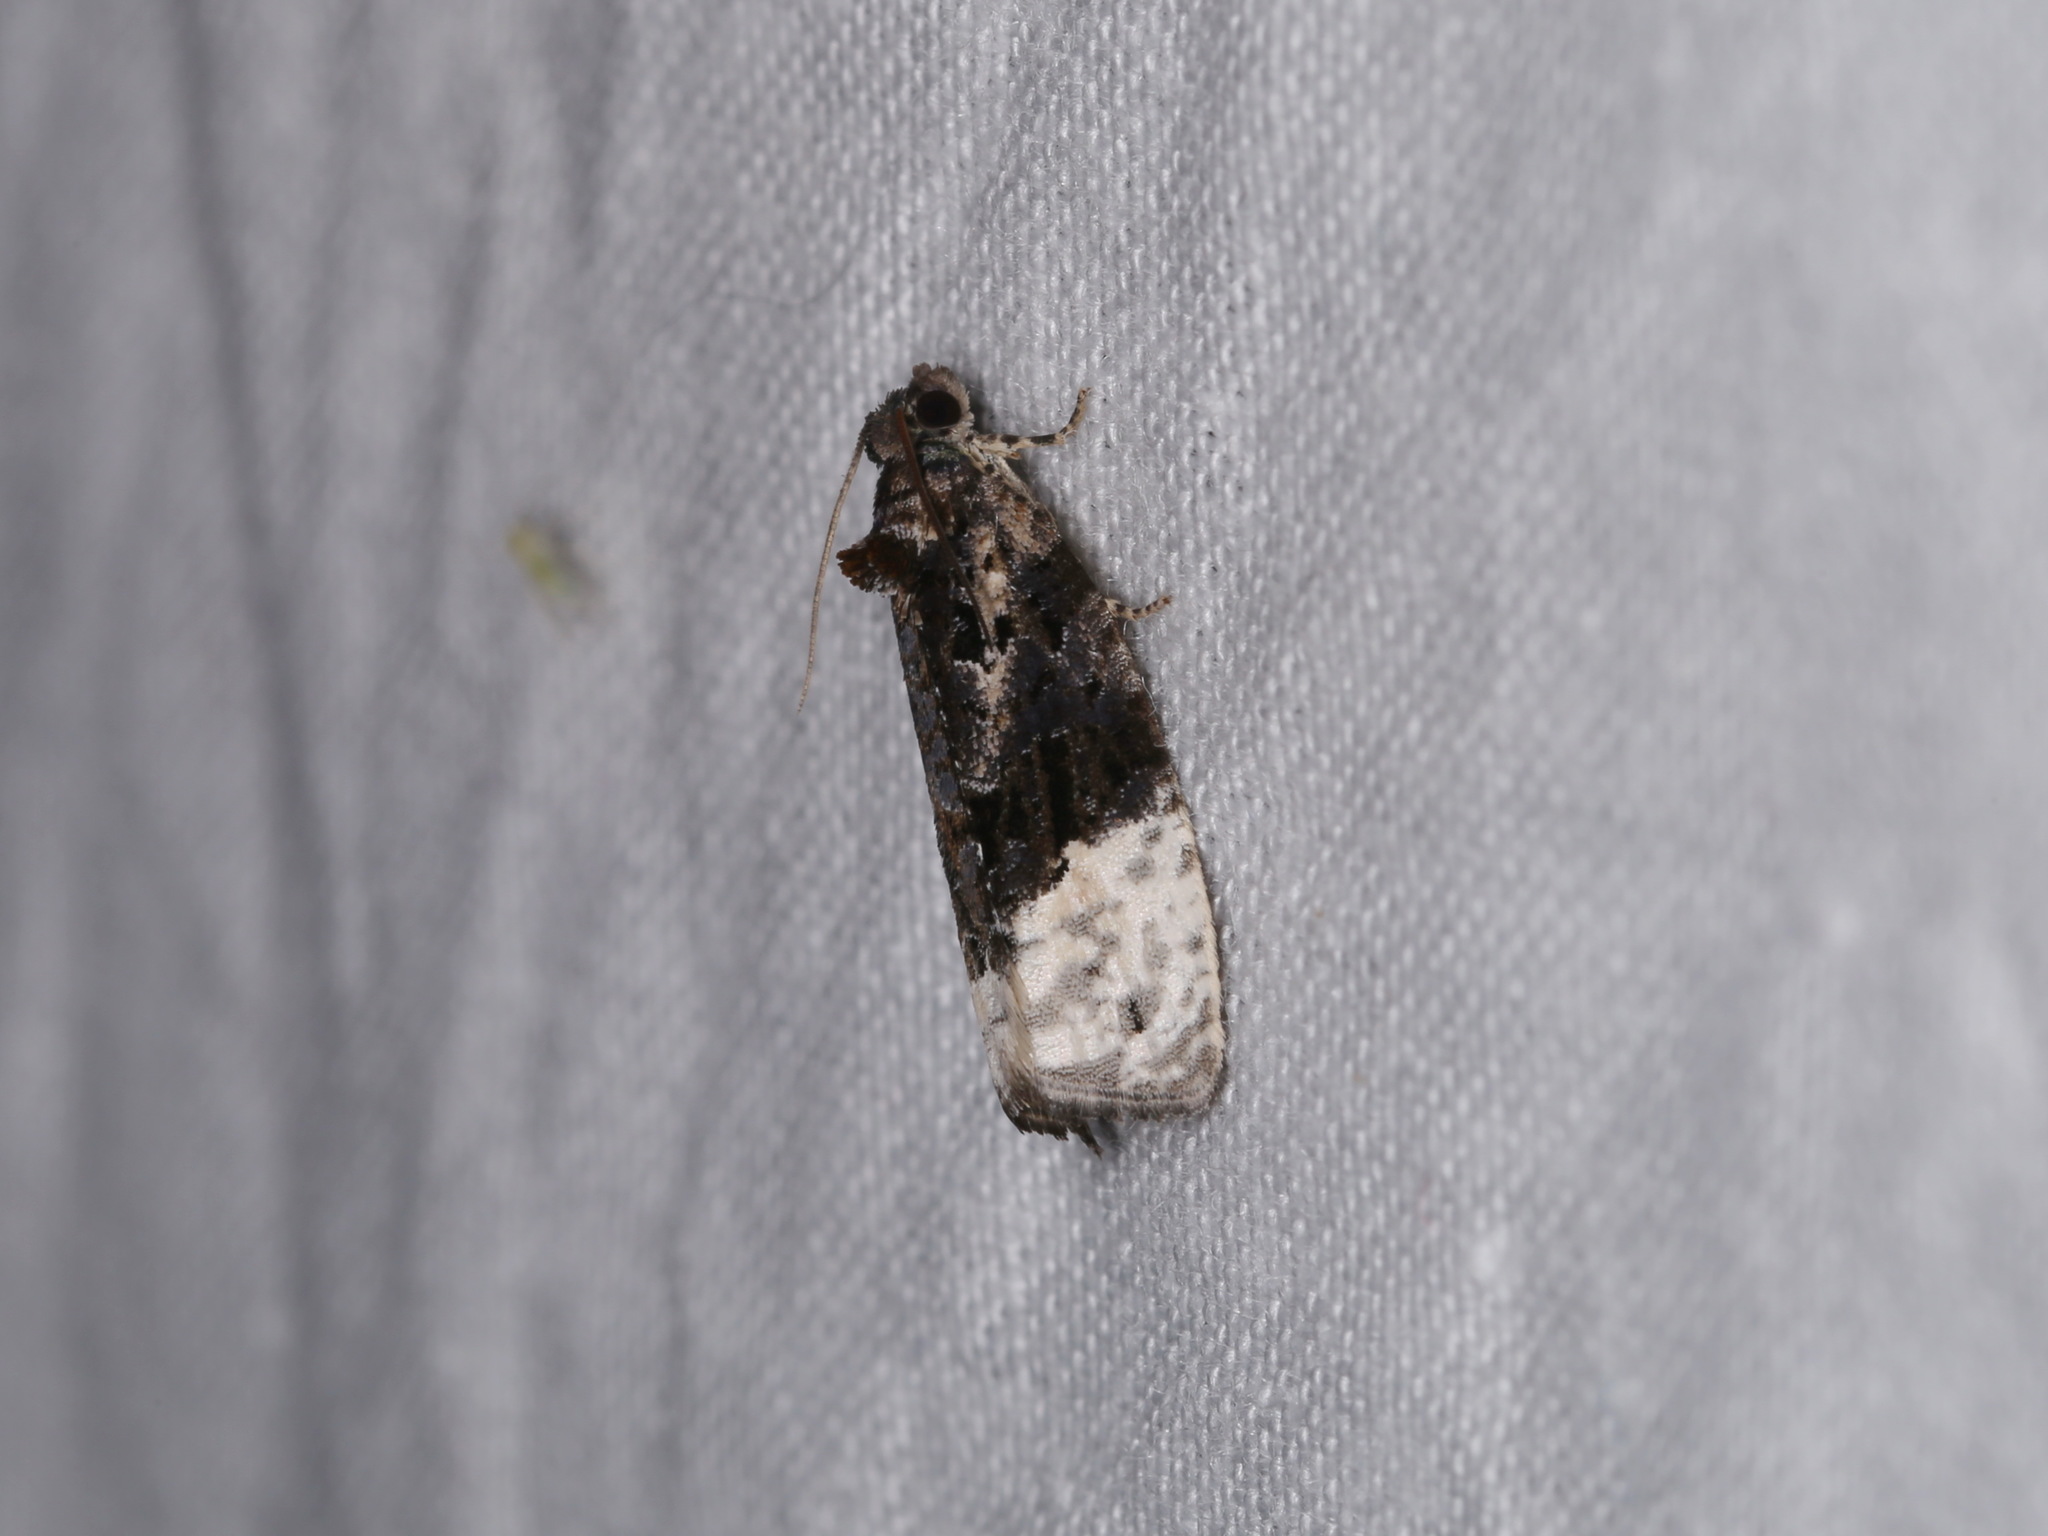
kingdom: Animalia
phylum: Arthropoda
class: Insecta
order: Lepidoptera
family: Tortricidae
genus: Apotomis
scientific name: Apotomis betuletana
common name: Birch marble
